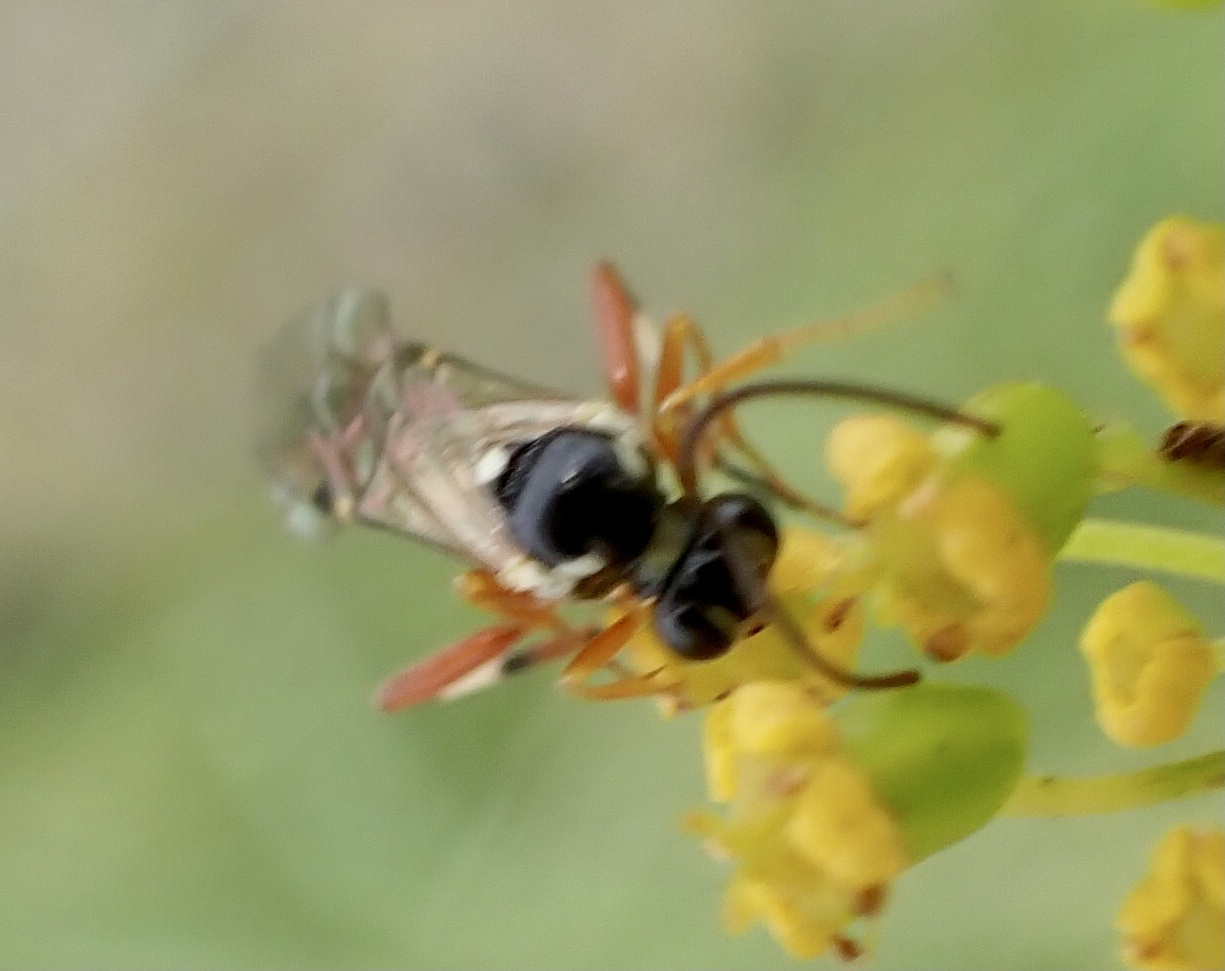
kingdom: Animalia
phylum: Arthropoda
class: Insecta
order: Hymenoptera
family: Ichneumonidae
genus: Diplazon
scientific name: Diplazon laetatorius
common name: Parasitoid wasp
